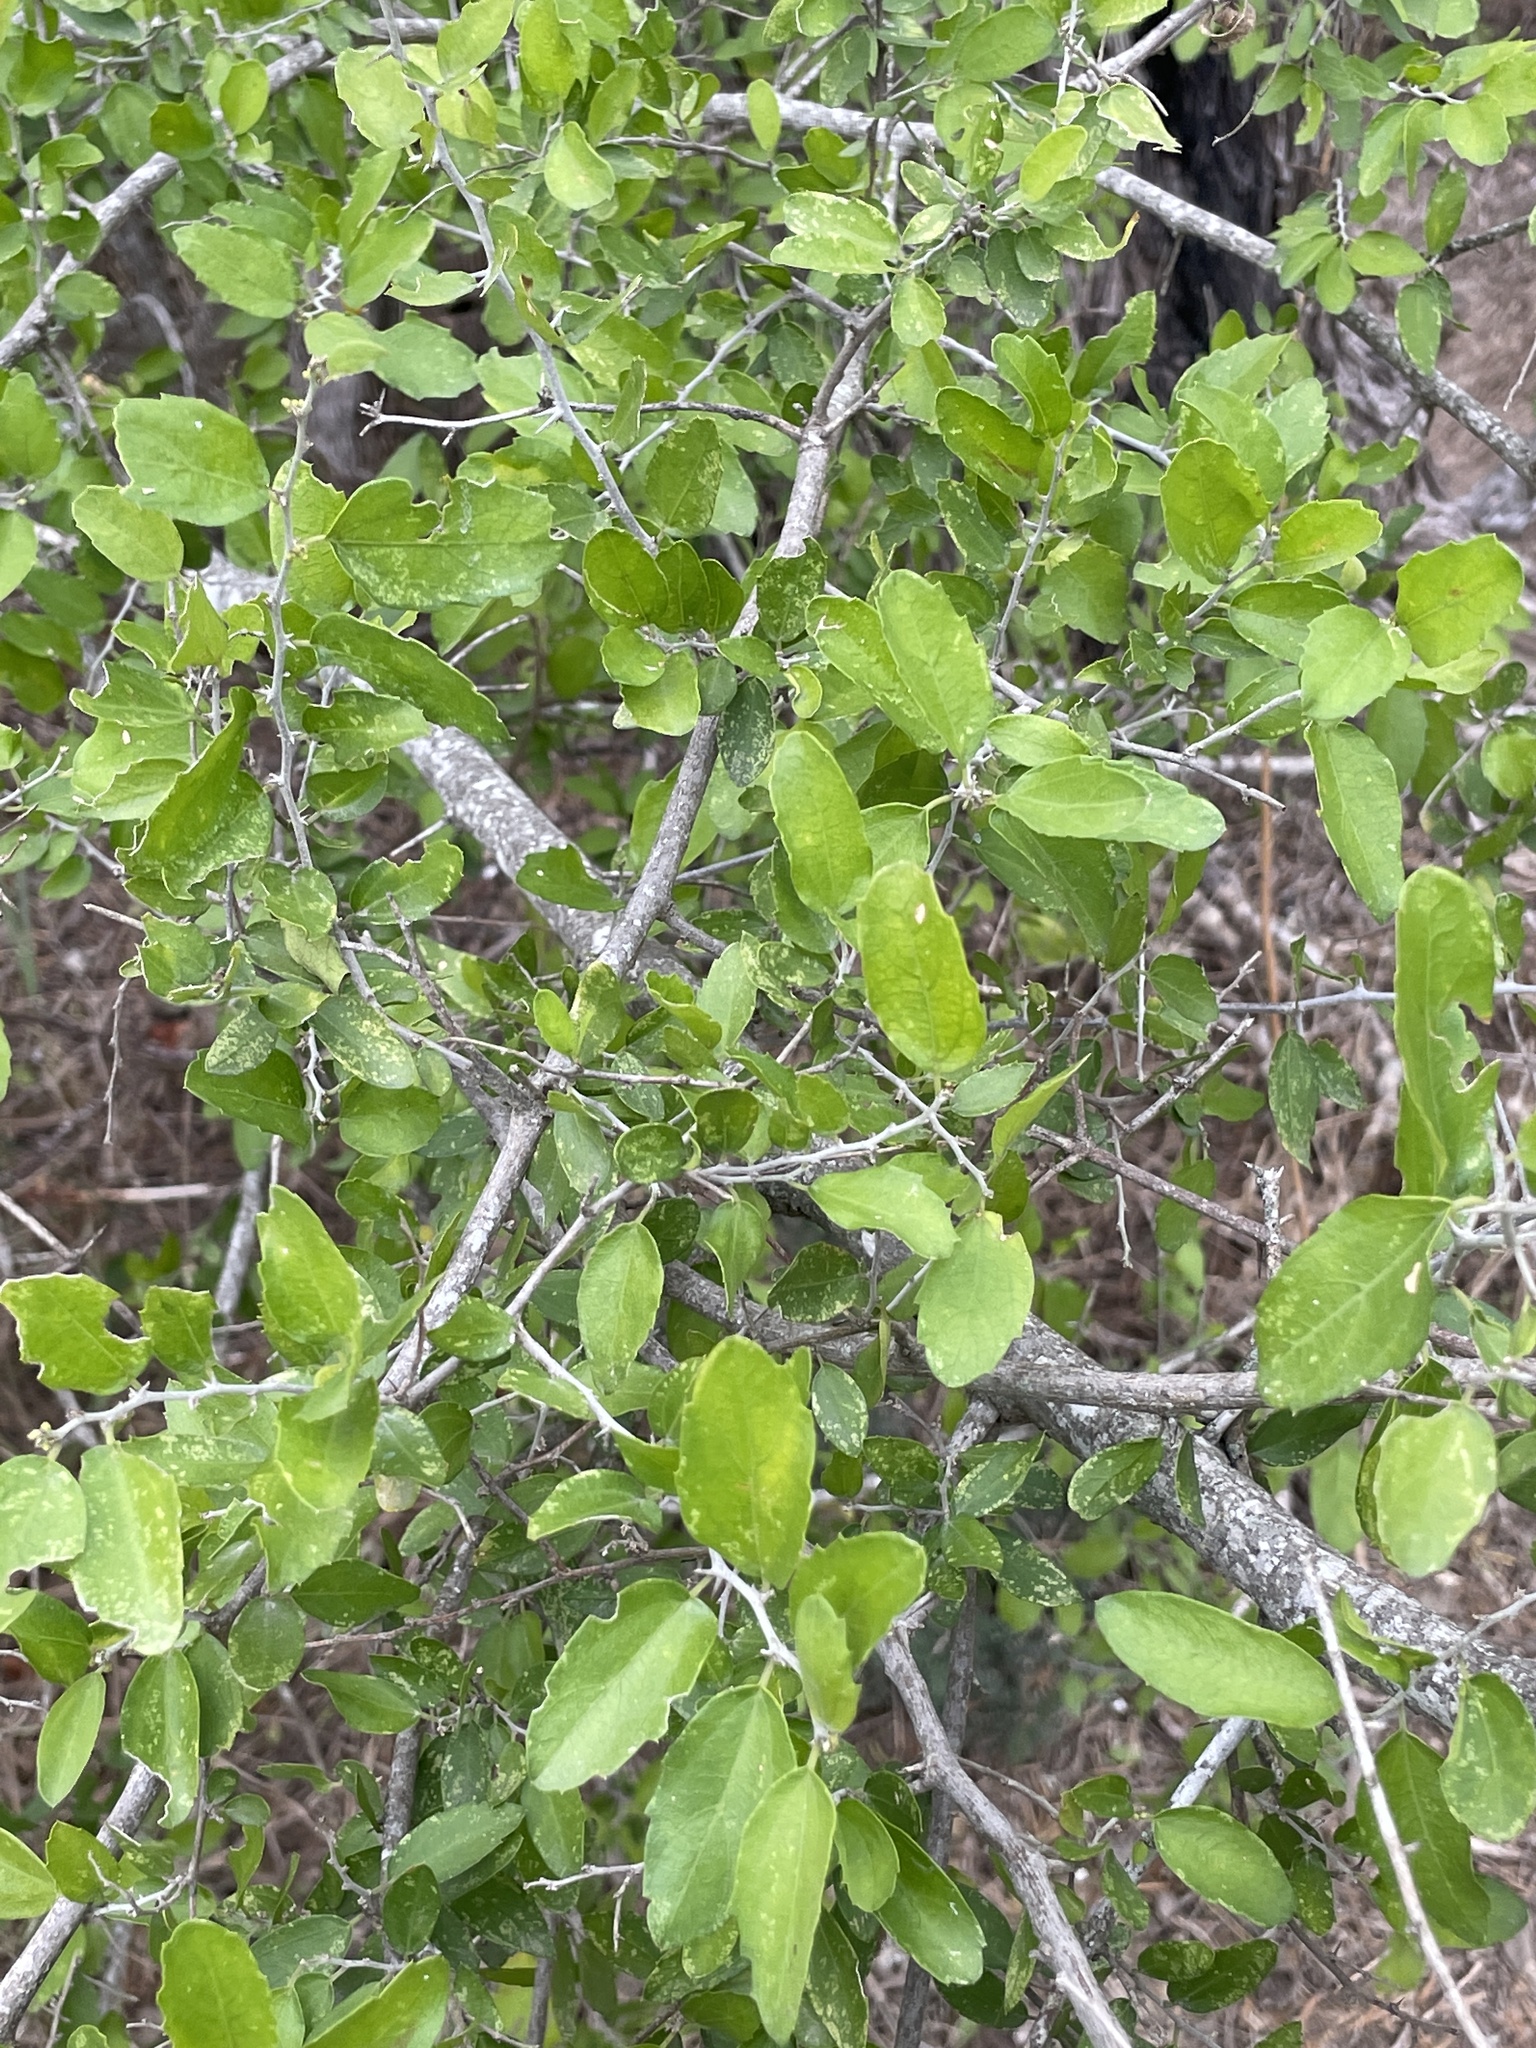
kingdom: Plantae
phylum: Tracheophyta
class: Magnoliopsida
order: Rosales
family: Cannabaceae
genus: Celtis
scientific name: Celtis pallida
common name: Desert hackberry
